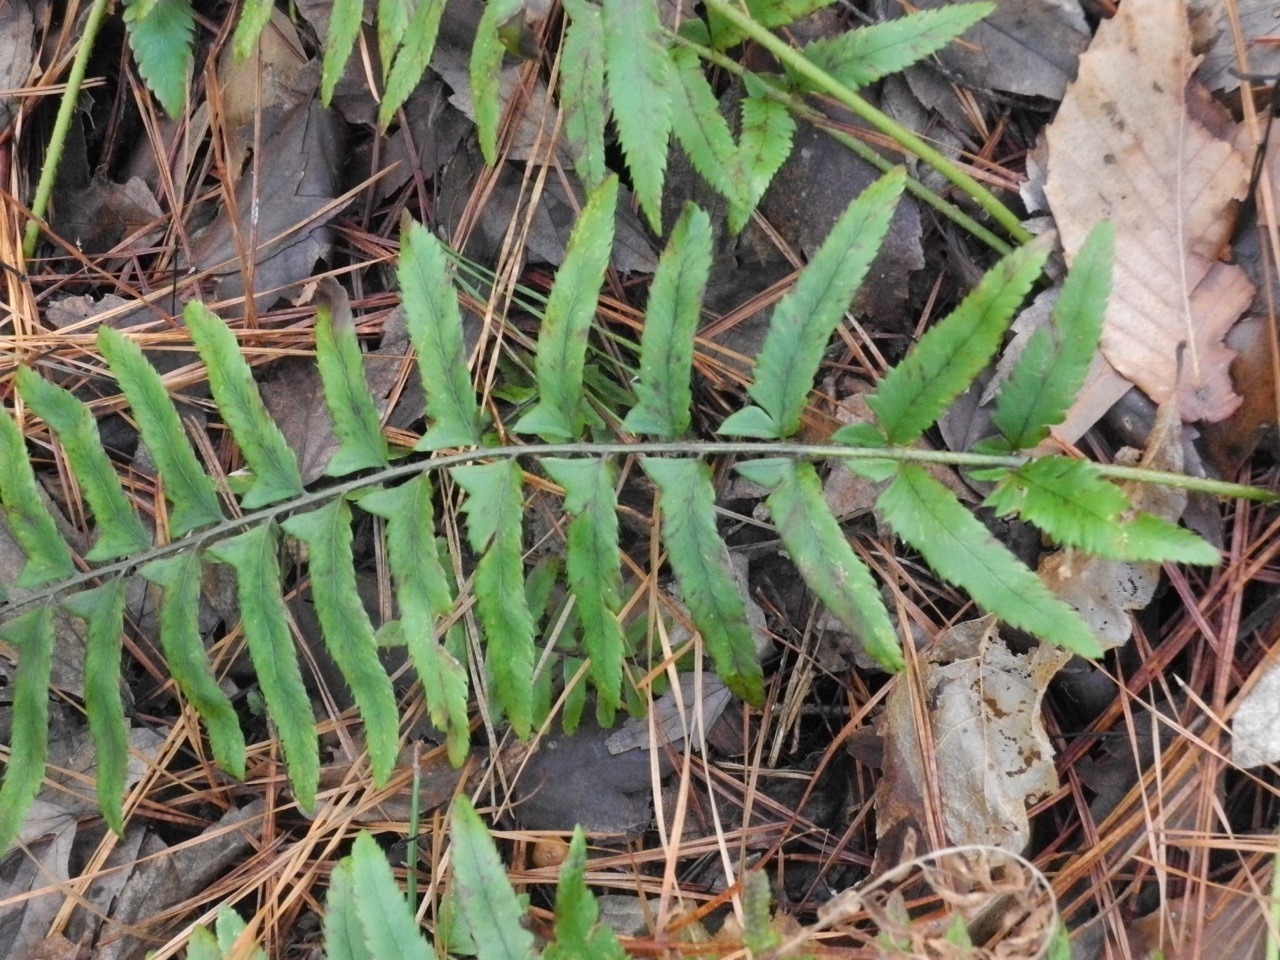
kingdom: Plantae
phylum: Tracheophyta
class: Polypodiopsida
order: Polypodiales
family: Dryopteridaceae
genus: Polystichum
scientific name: Polystichum acrostichoides
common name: Christmas fern
